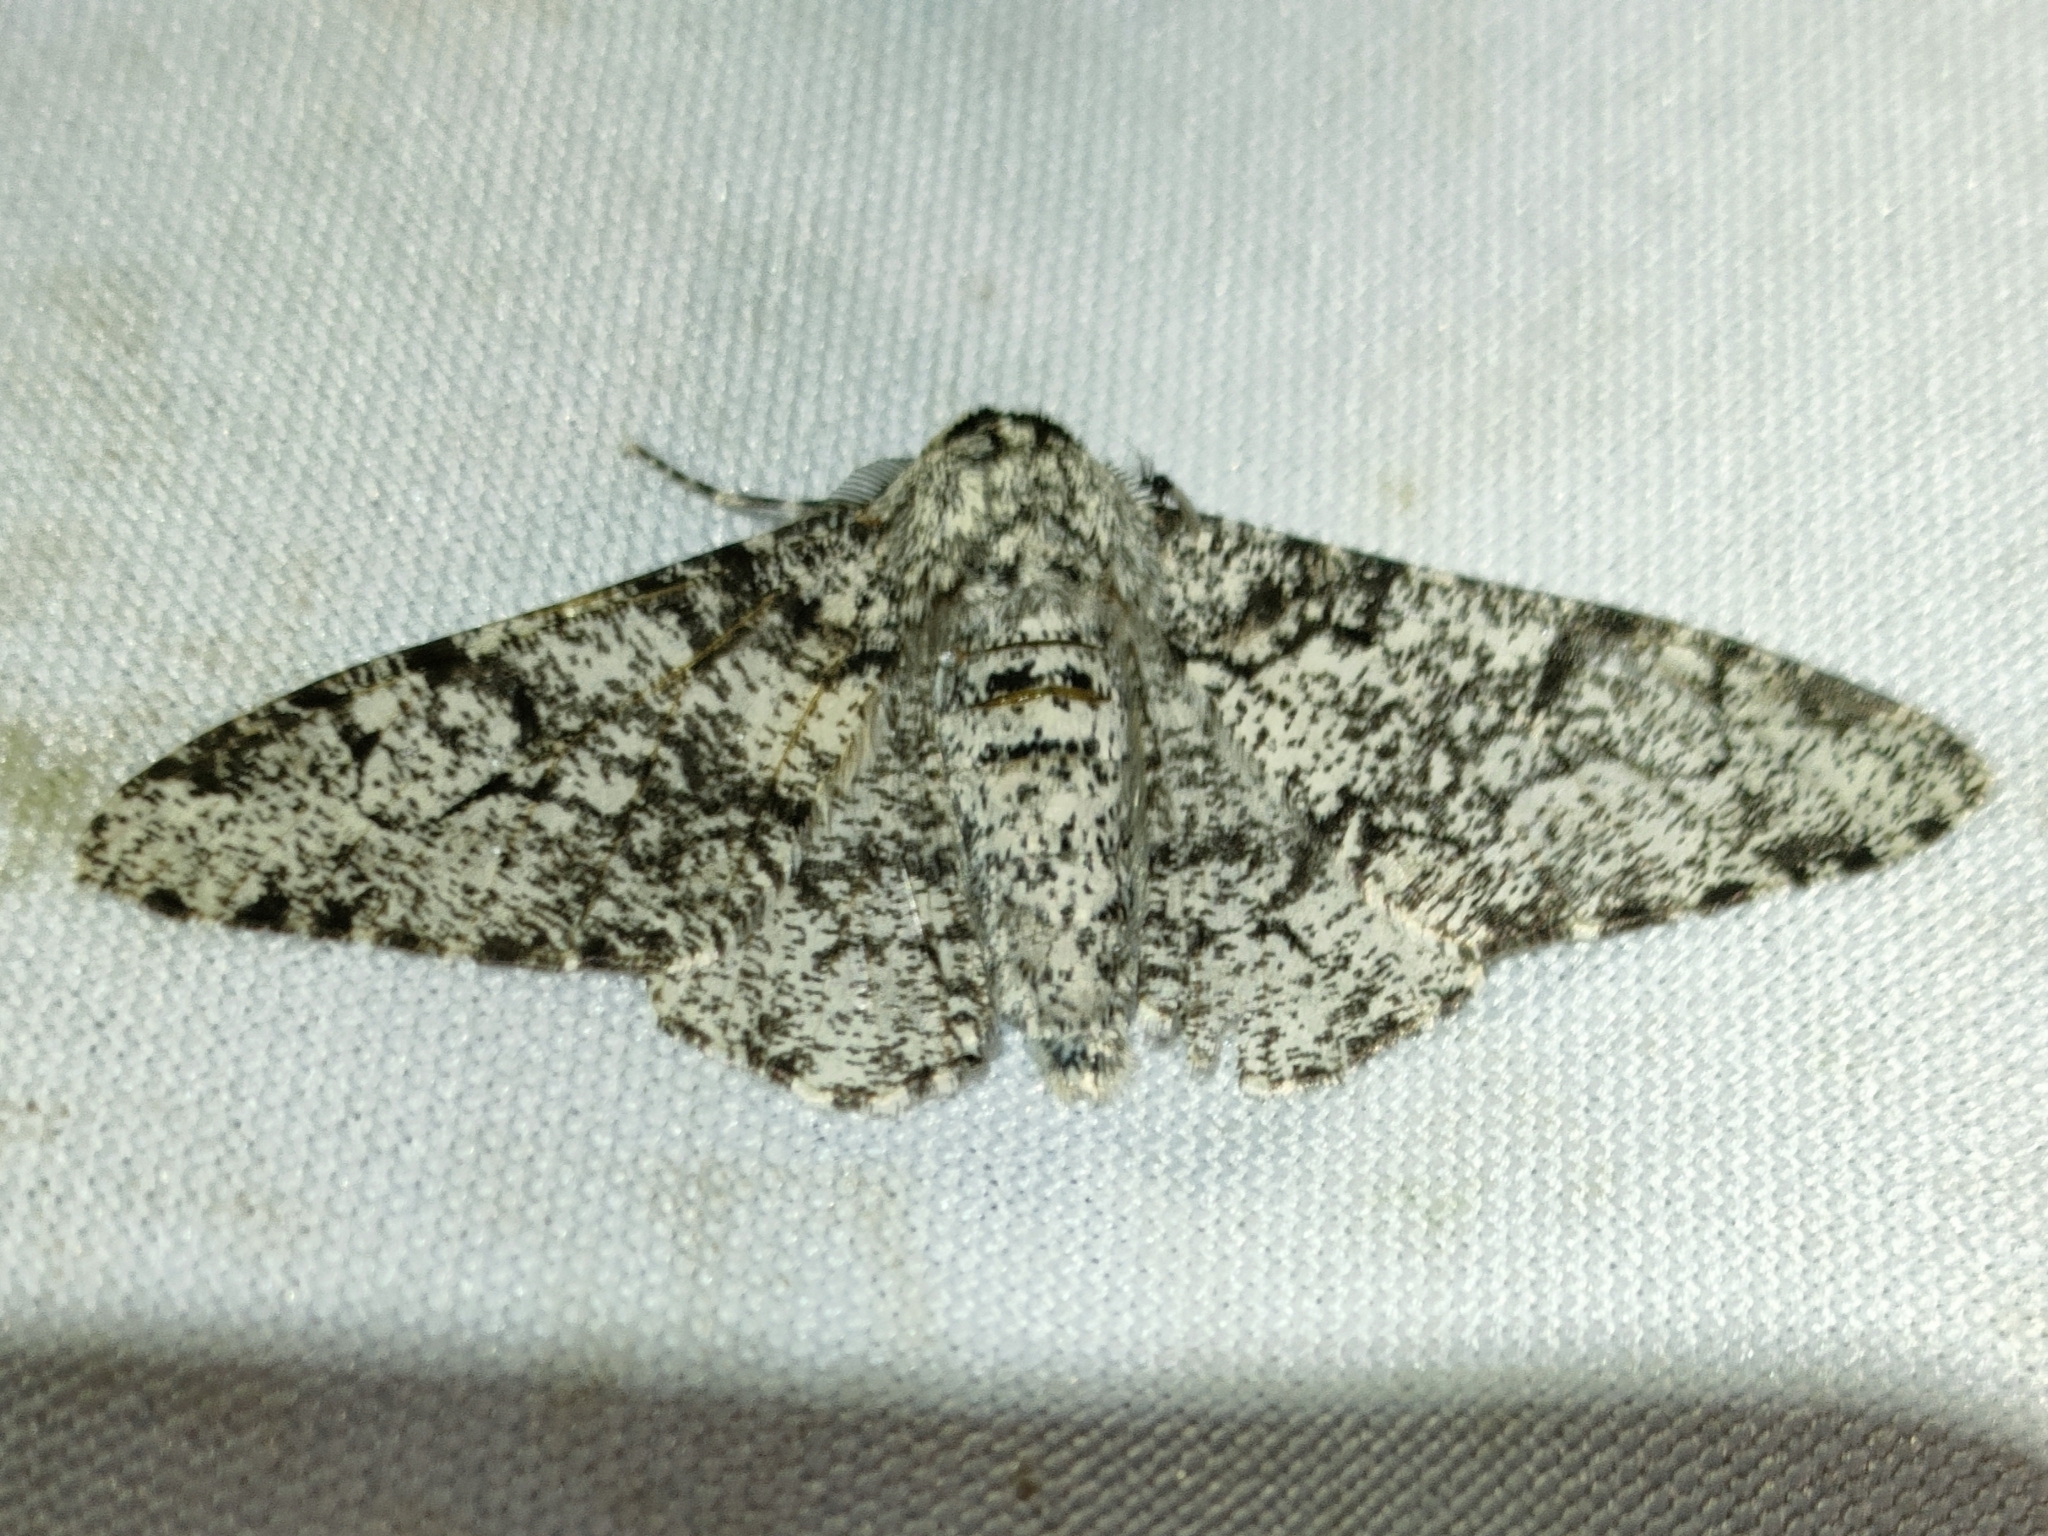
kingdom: Animalia
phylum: Arthropoda
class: Insecta
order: Lepidoptera
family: Geometridae
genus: Biston
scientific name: Biston betularia
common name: Peppered moth
